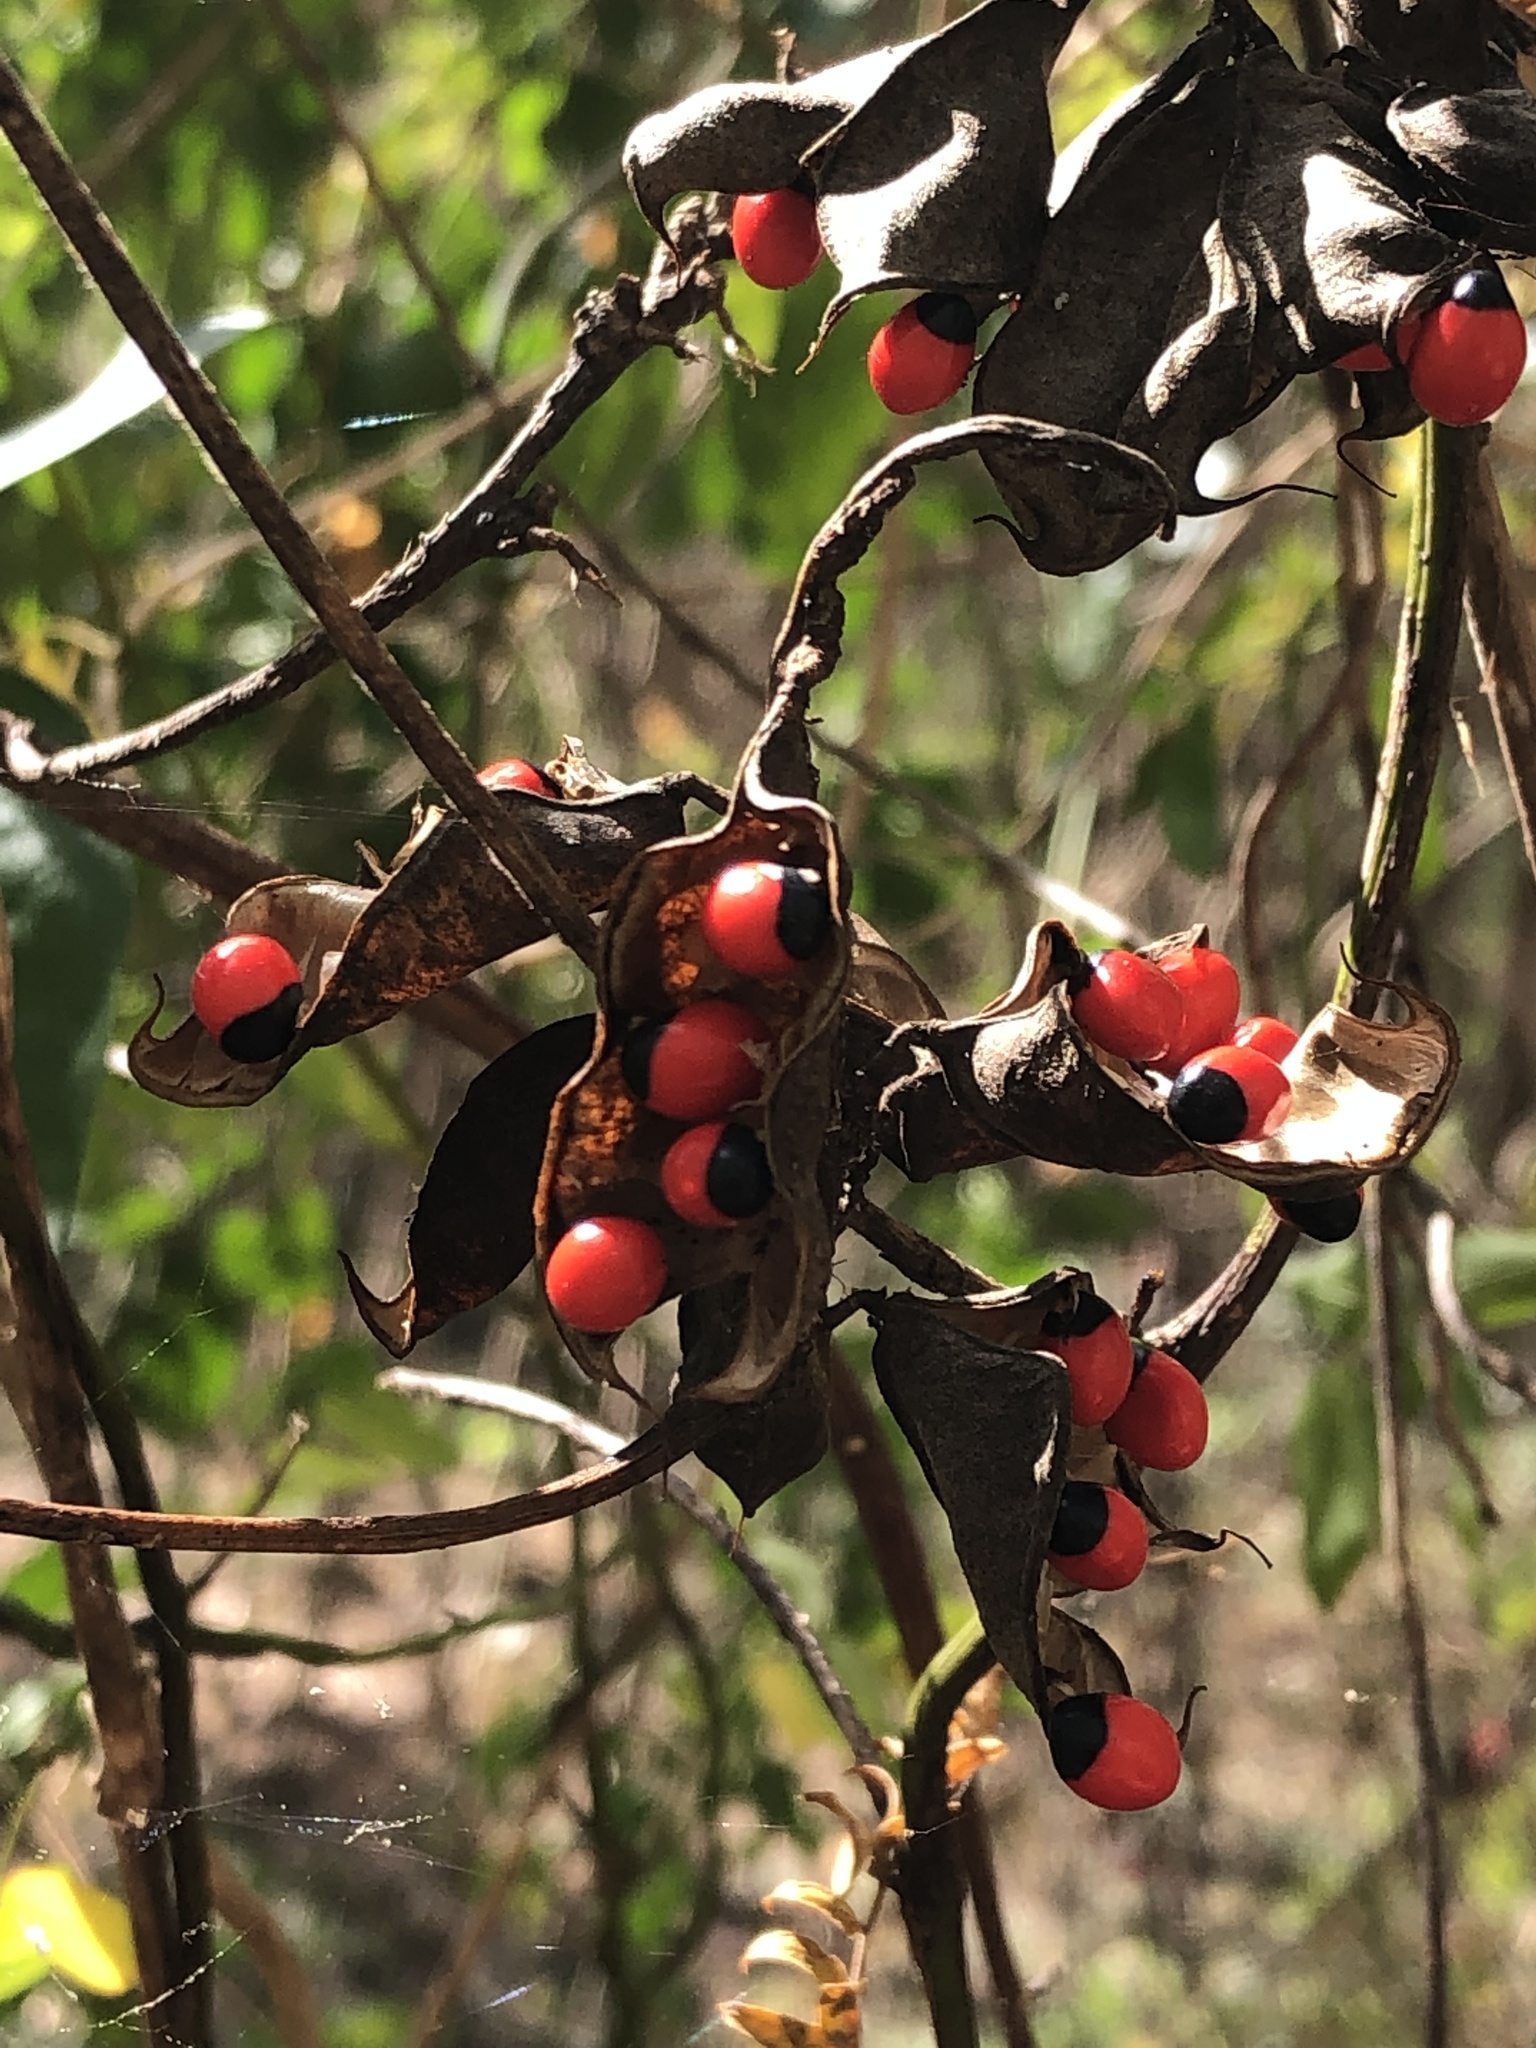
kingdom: Plantae
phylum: Tracheophyta
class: Magnoliopsida
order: Fabales
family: Fabaceae
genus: Abrus
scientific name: Abrus precatorius
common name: Rosarypea
